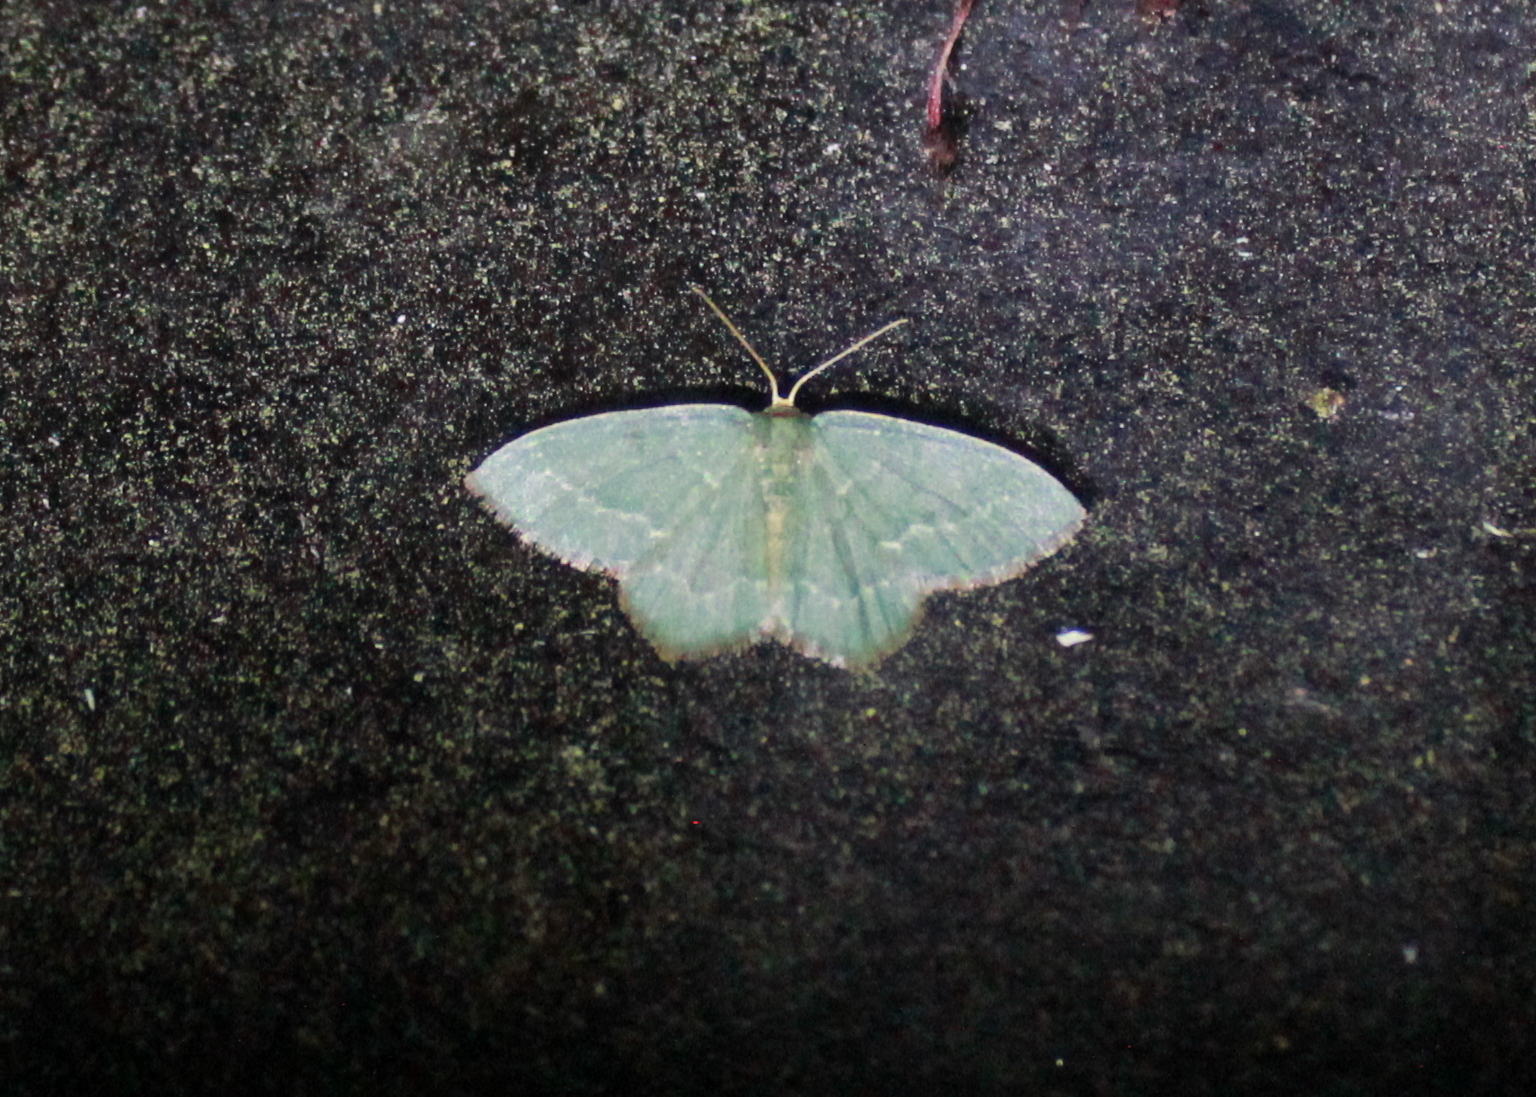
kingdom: Animalia
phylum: Arthropoda
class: Insecta
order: Lepidoptera
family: Geometridae
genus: Thalera
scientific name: Thalera pistasciaria
